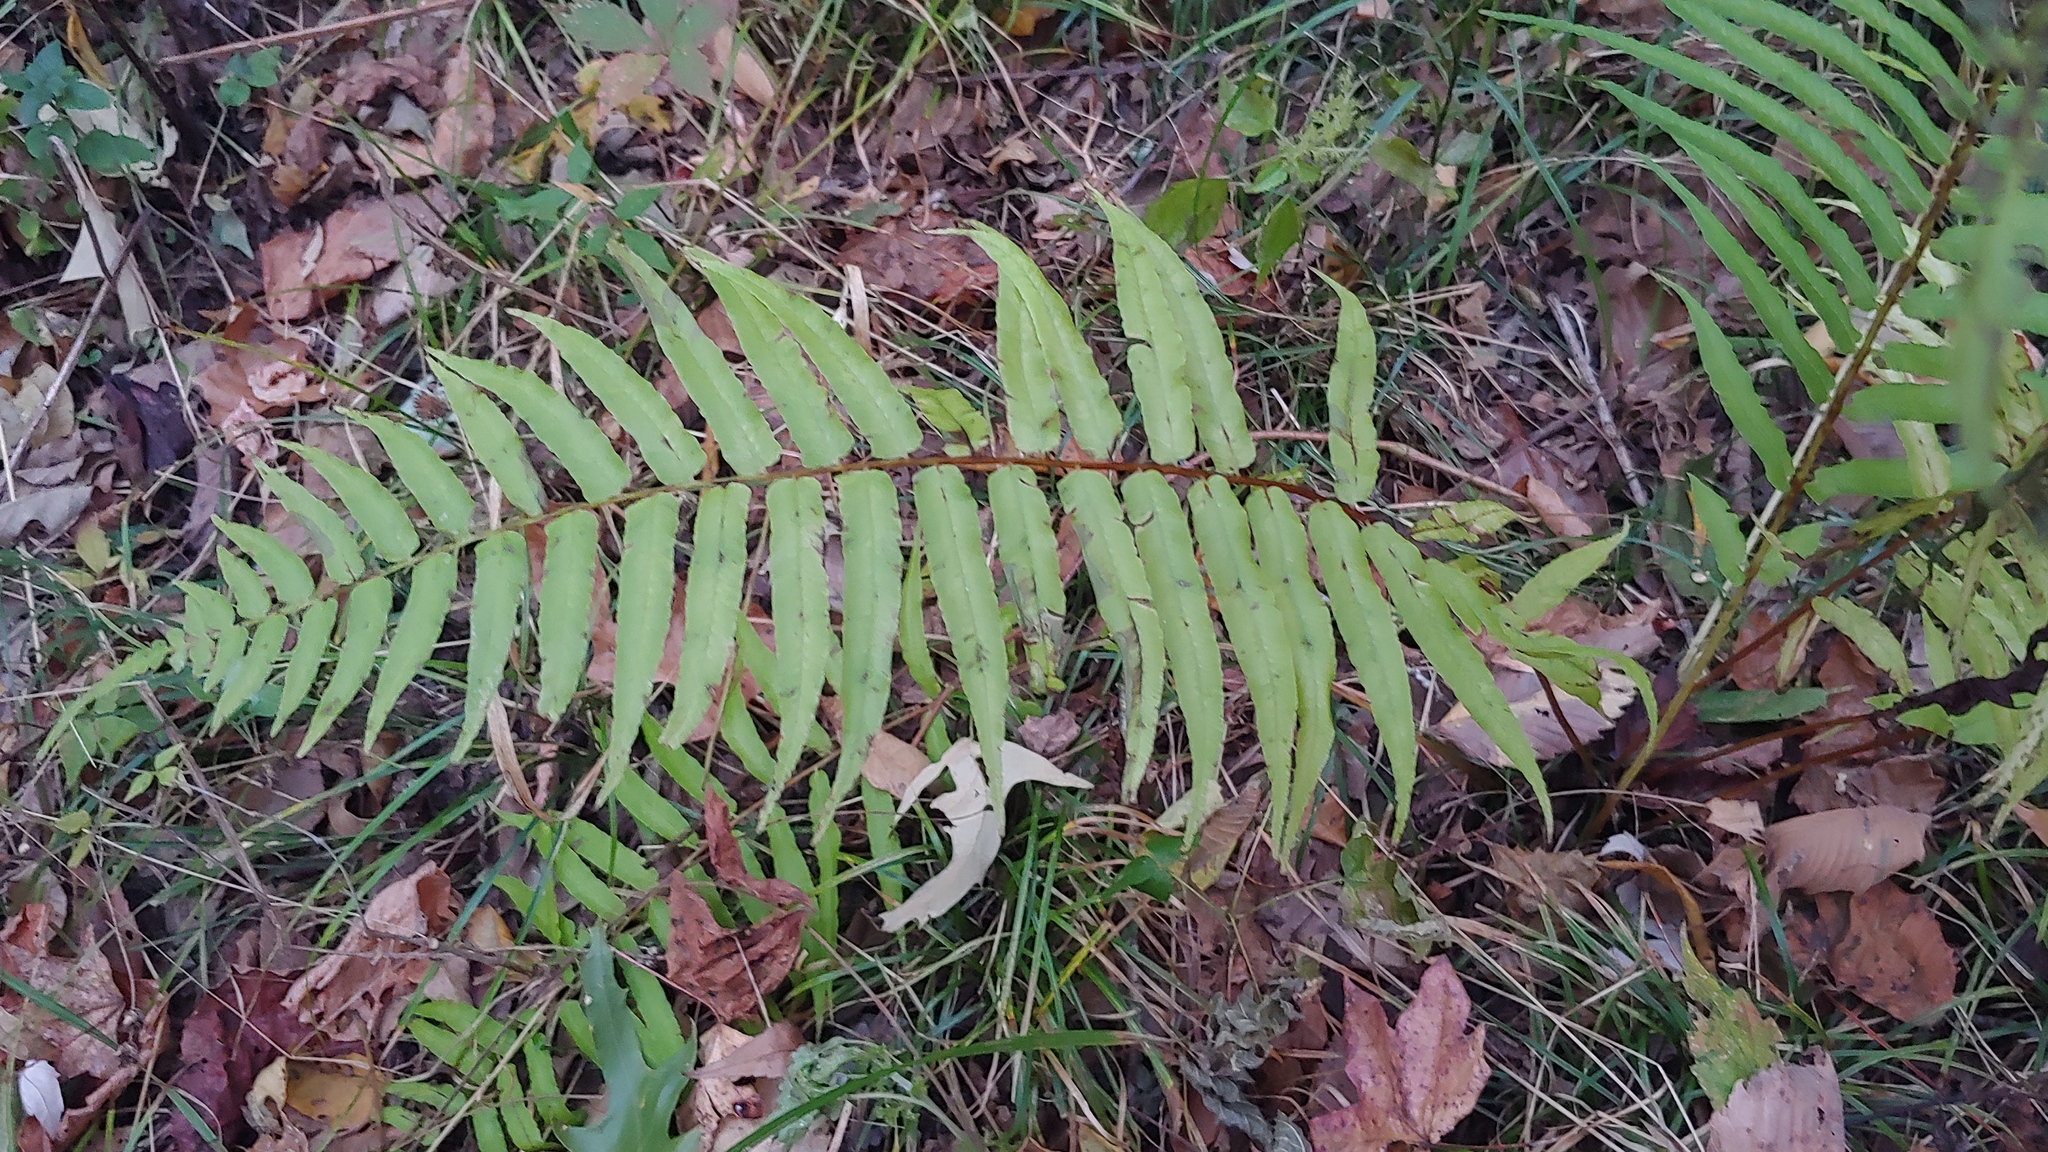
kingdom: Plantae
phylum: Tracheophyta
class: Polypodiopsida
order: Polypodiales
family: Diplaziopsidaceae
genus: Homalosorus
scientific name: Homalosorus pycnocarpos
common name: Glade fern
